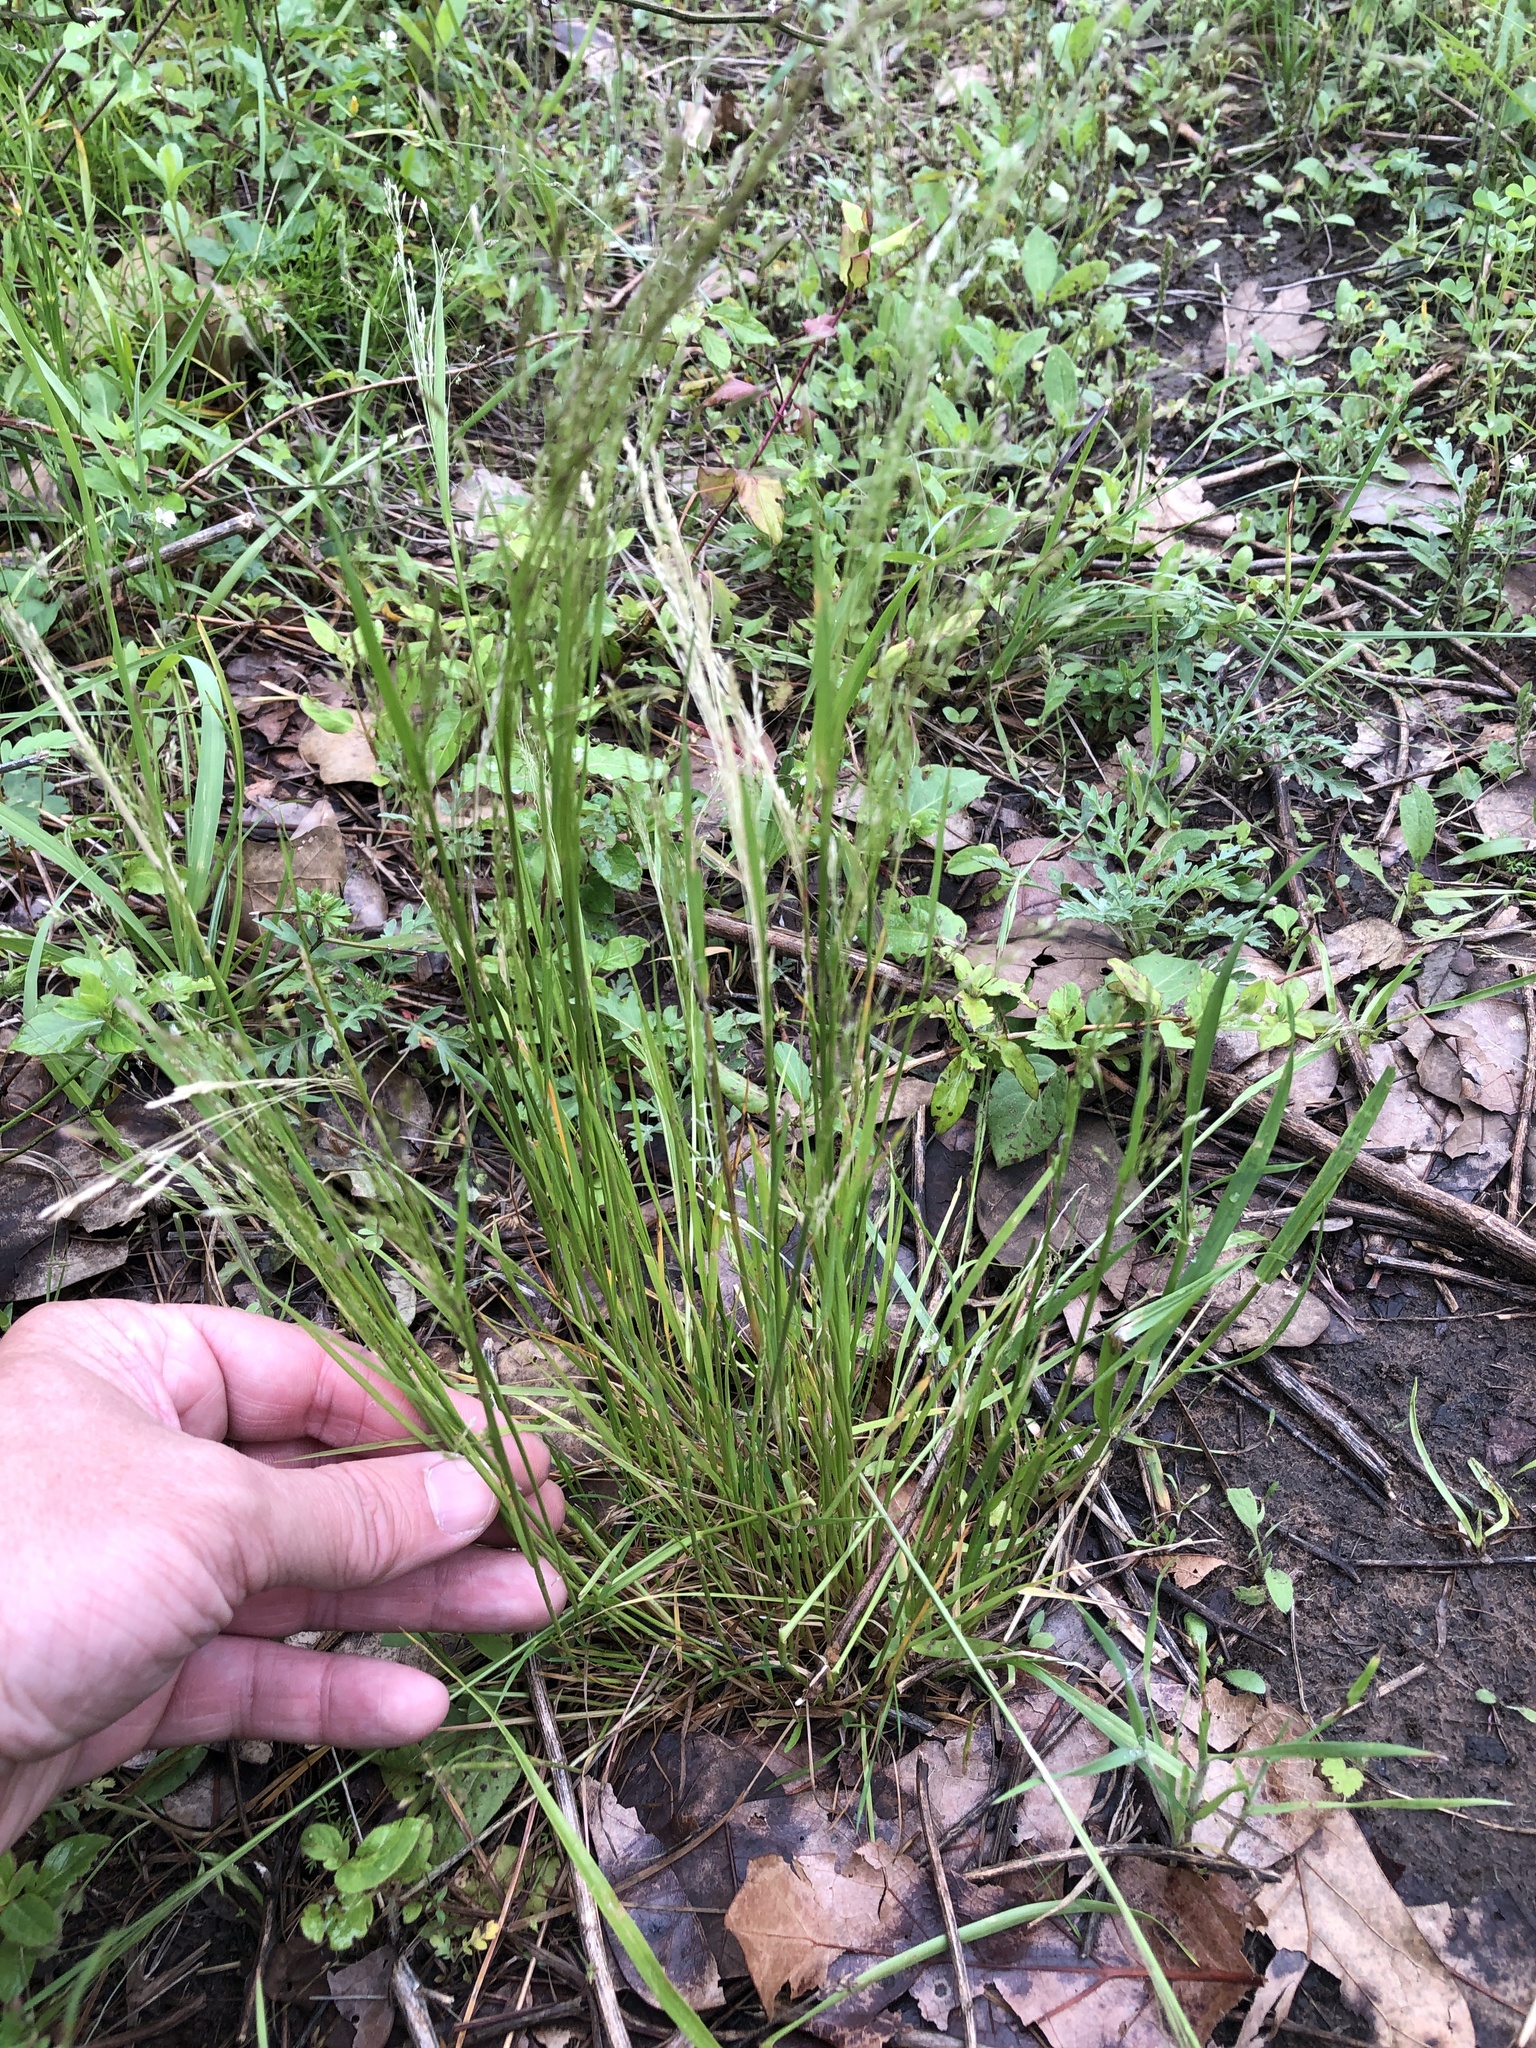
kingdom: Plantae
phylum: Tracheophyta
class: Liliopsida
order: Poales
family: Poaceae
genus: Agrostis
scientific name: Agrostis hyemalis
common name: Small bent
